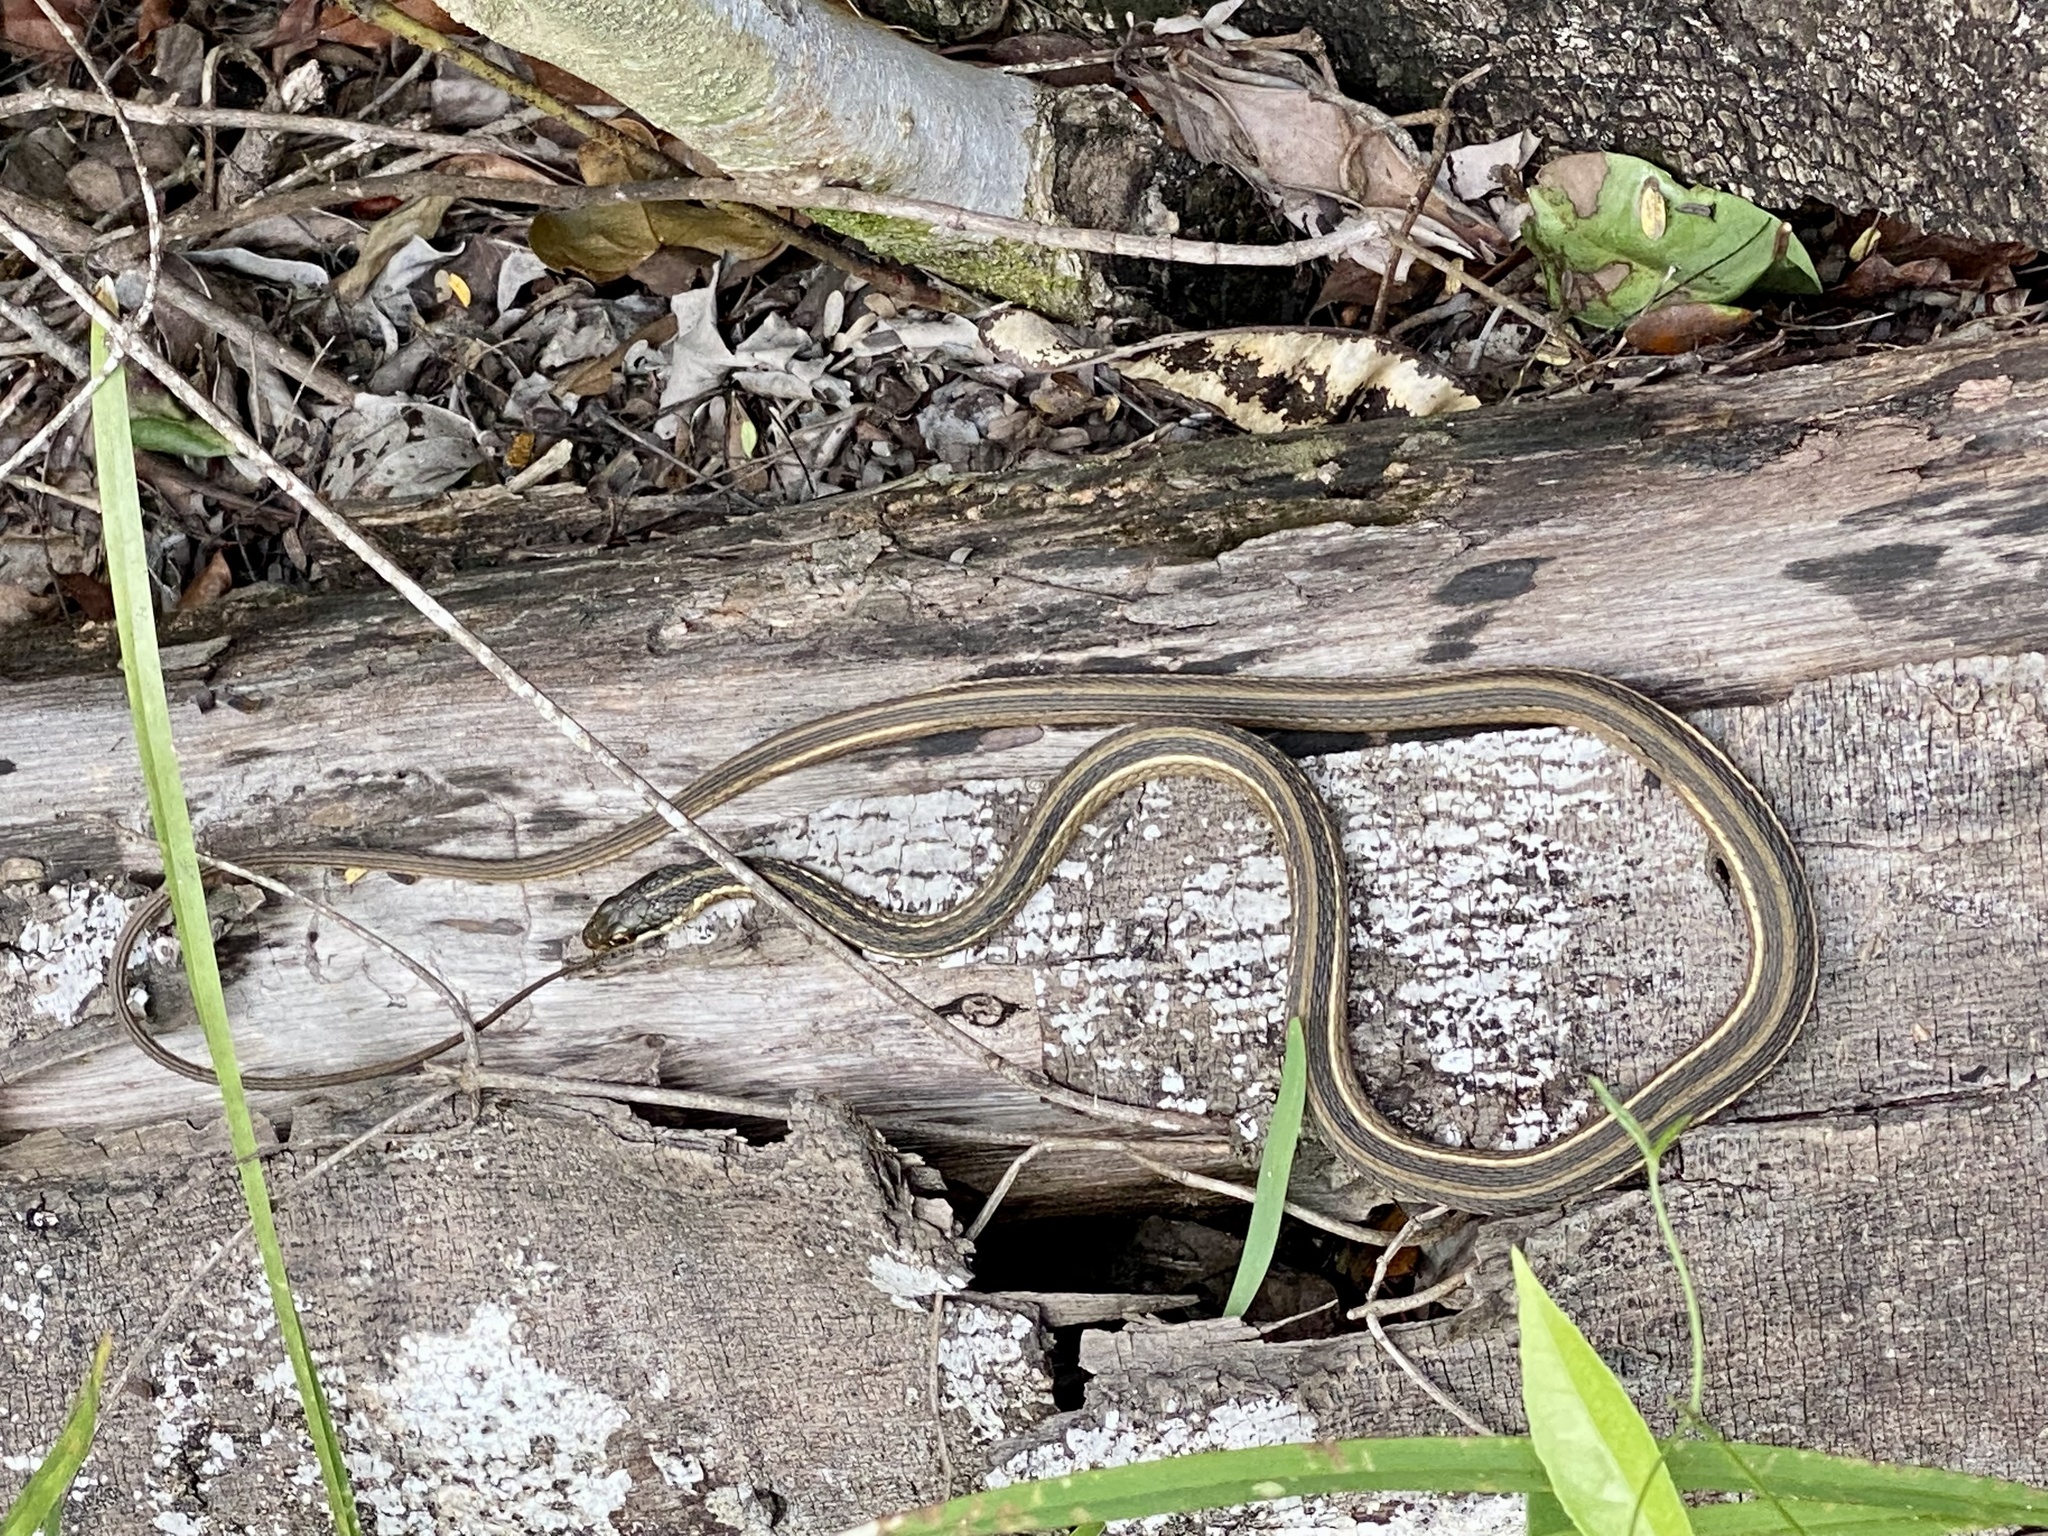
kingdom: Animalia
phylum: Chordata
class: Squamata
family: Colubridae
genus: Thamnophis
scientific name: Thamnophis saurita
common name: Eastern ribbonsnake
